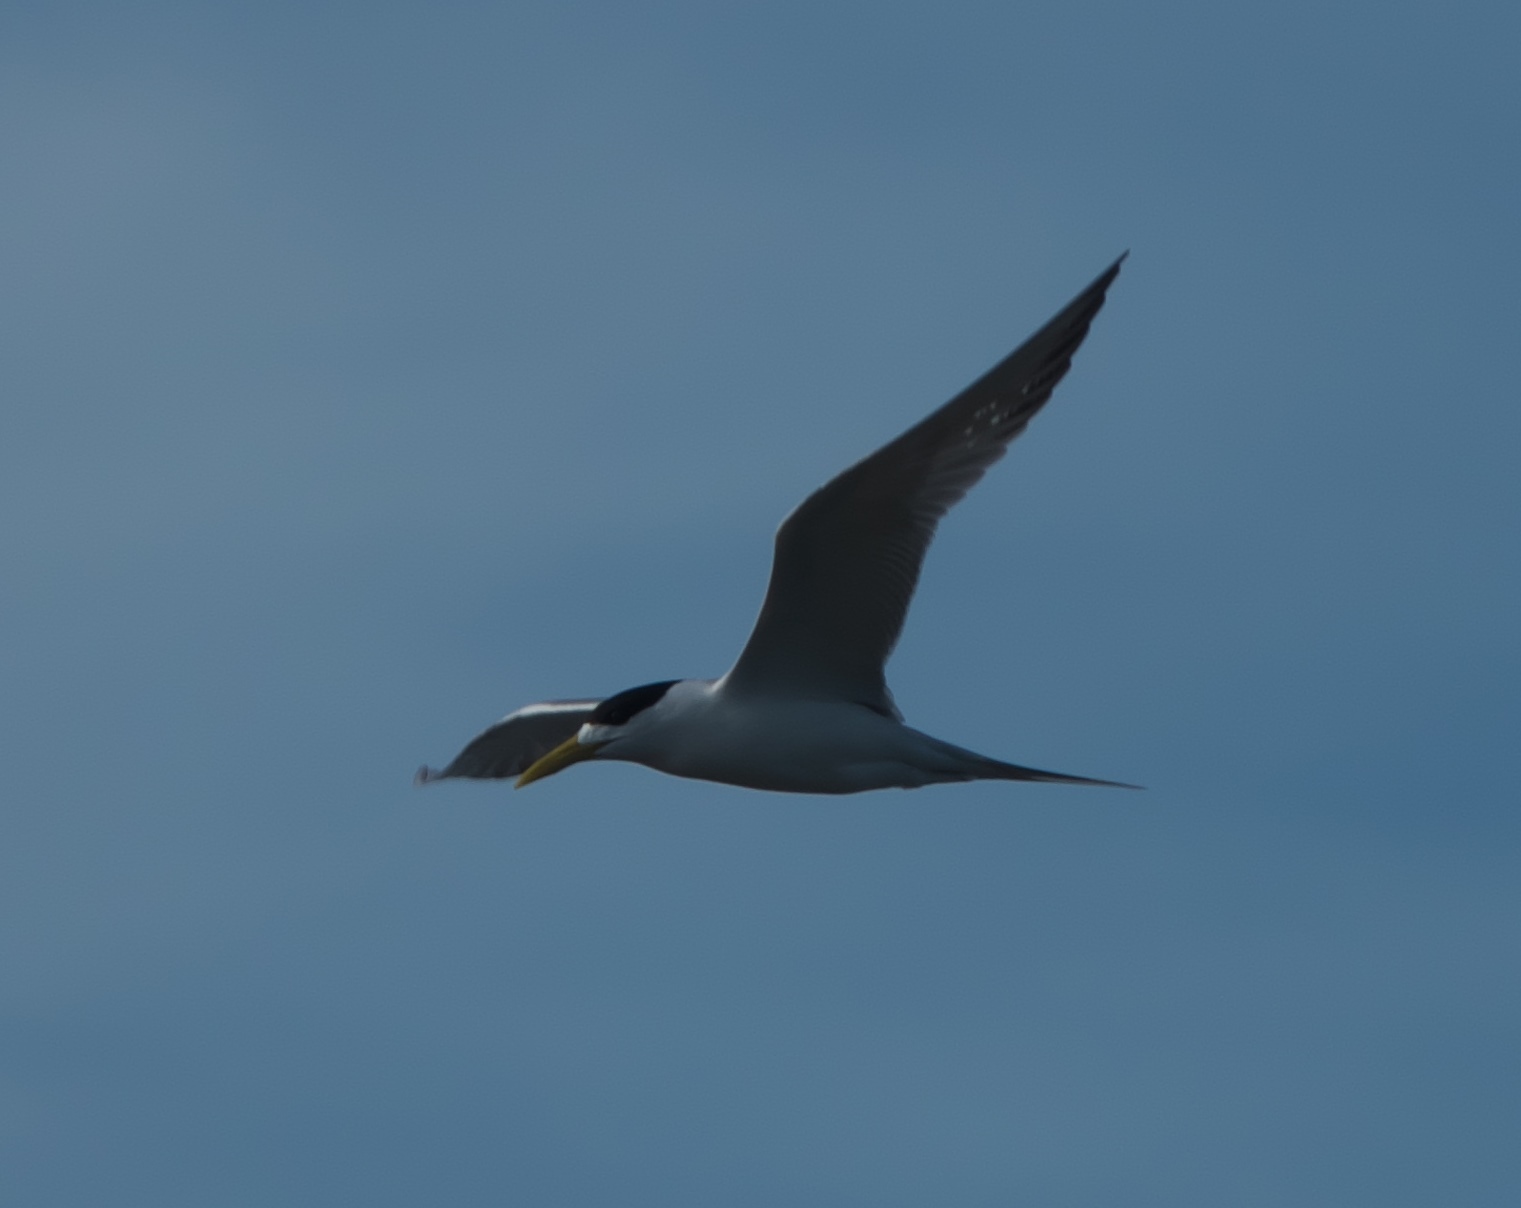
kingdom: Animalia
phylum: Chordata
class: Aves
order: Charadriiformes
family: Laridae
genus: Thalasseus
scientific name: Thalasseus bergii
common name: Greater crested tern
